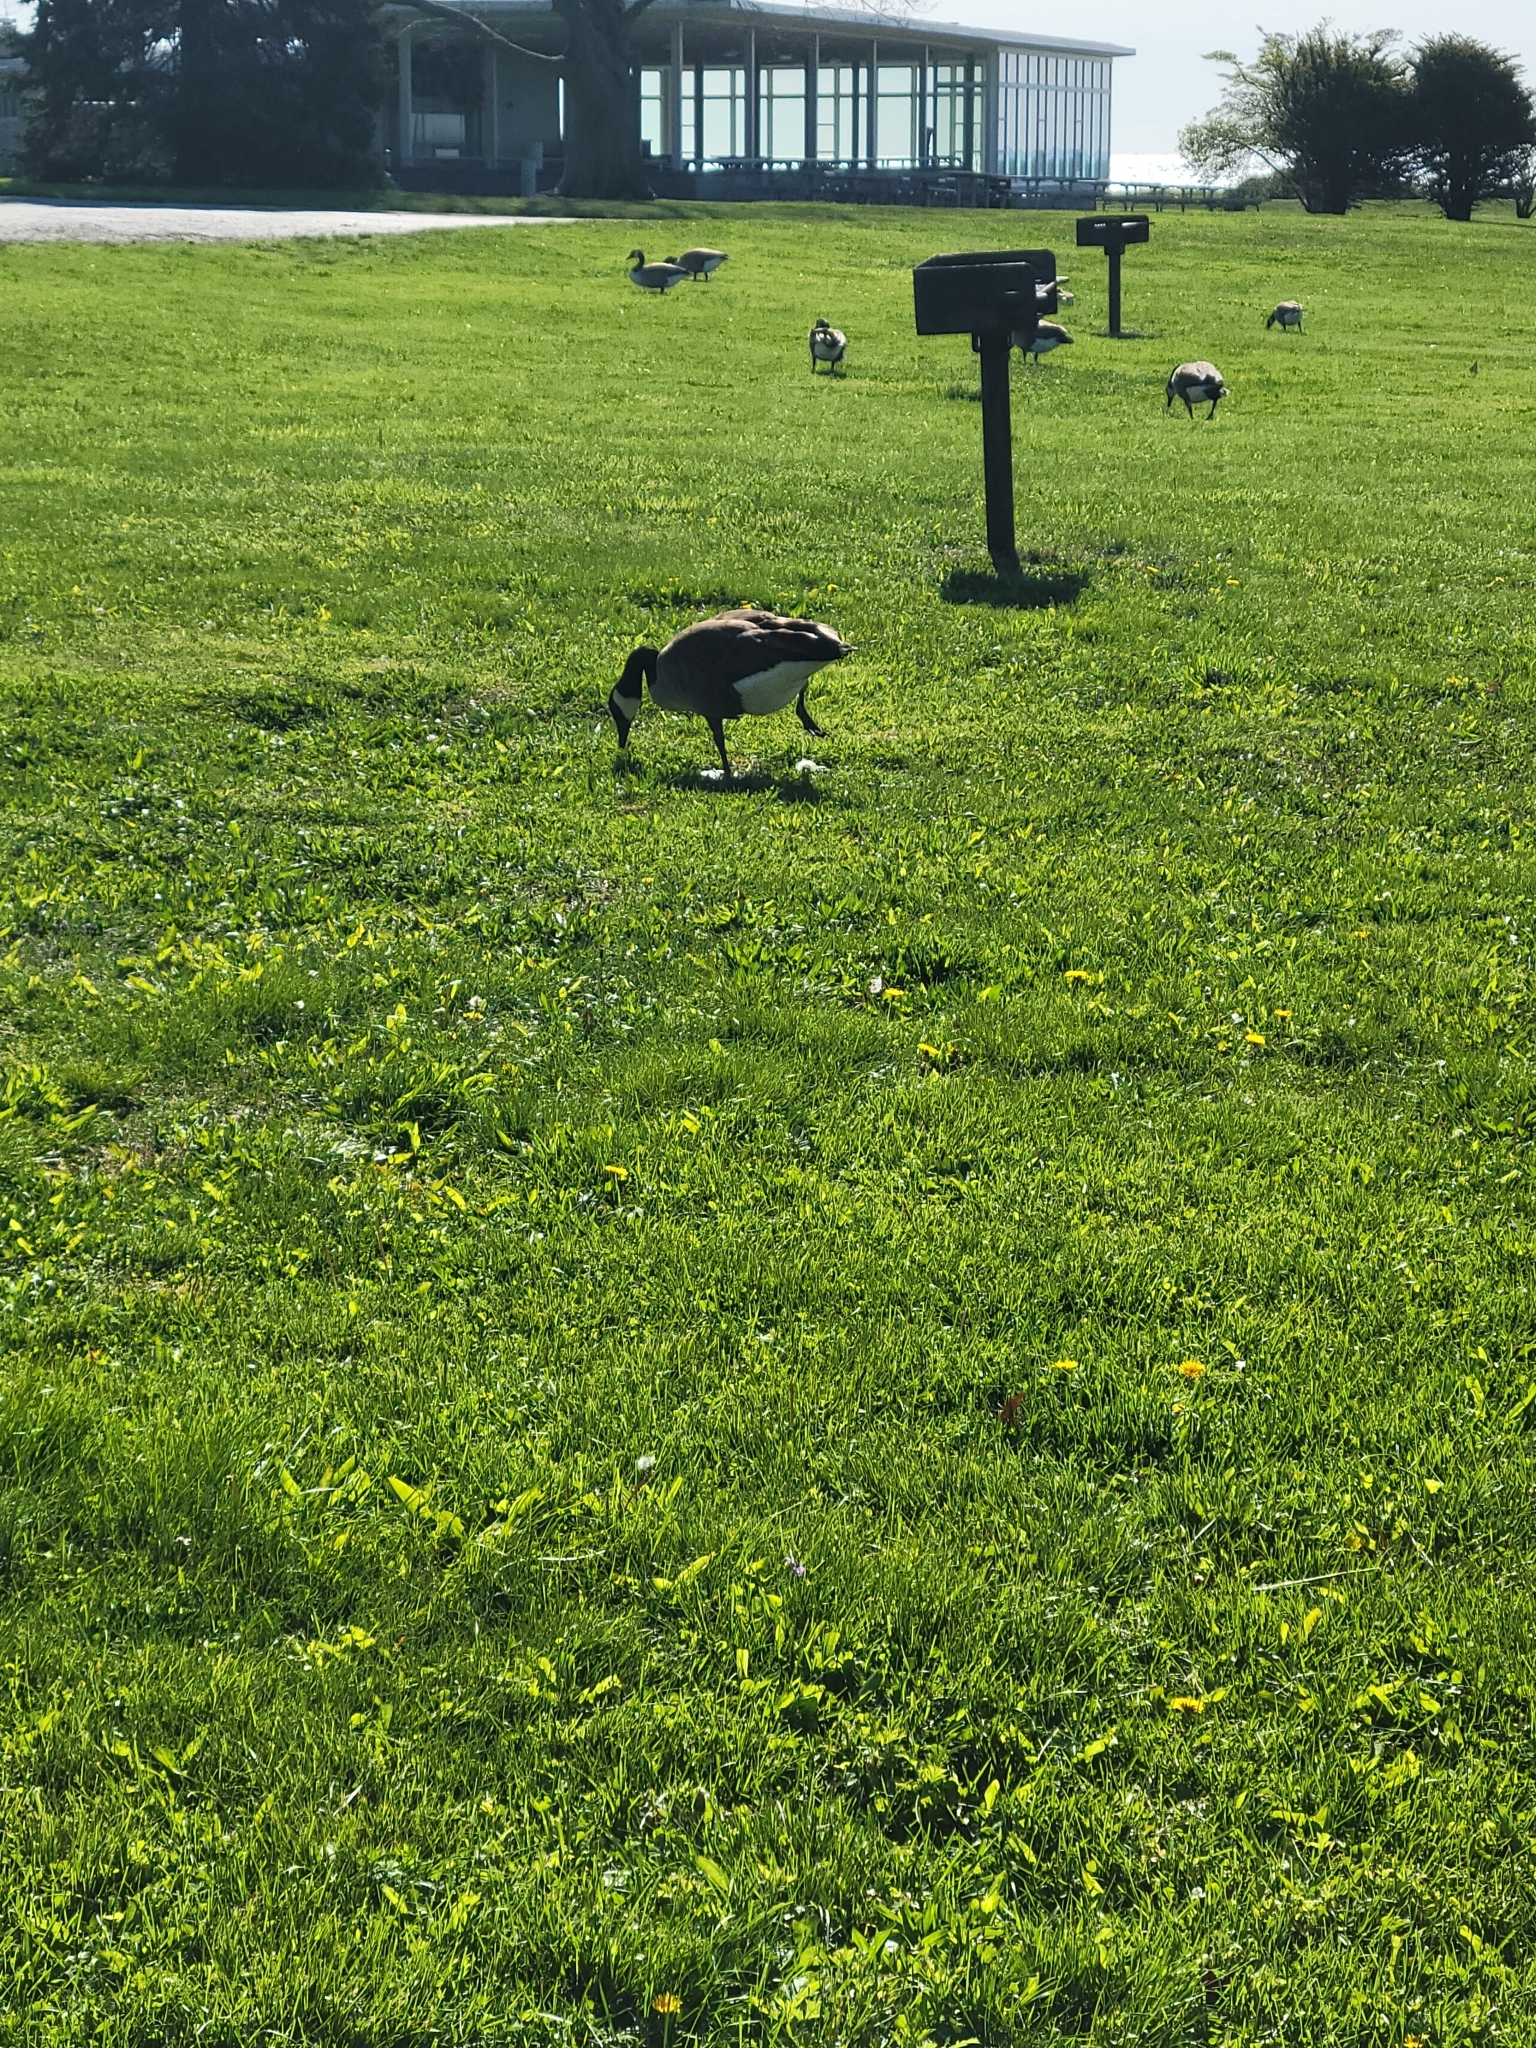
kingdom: Animalia
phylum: Chordata
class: Aves
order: Anseriformes
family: Anatidae
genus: Branta
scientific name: Branta canadensis
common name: Canada goose
